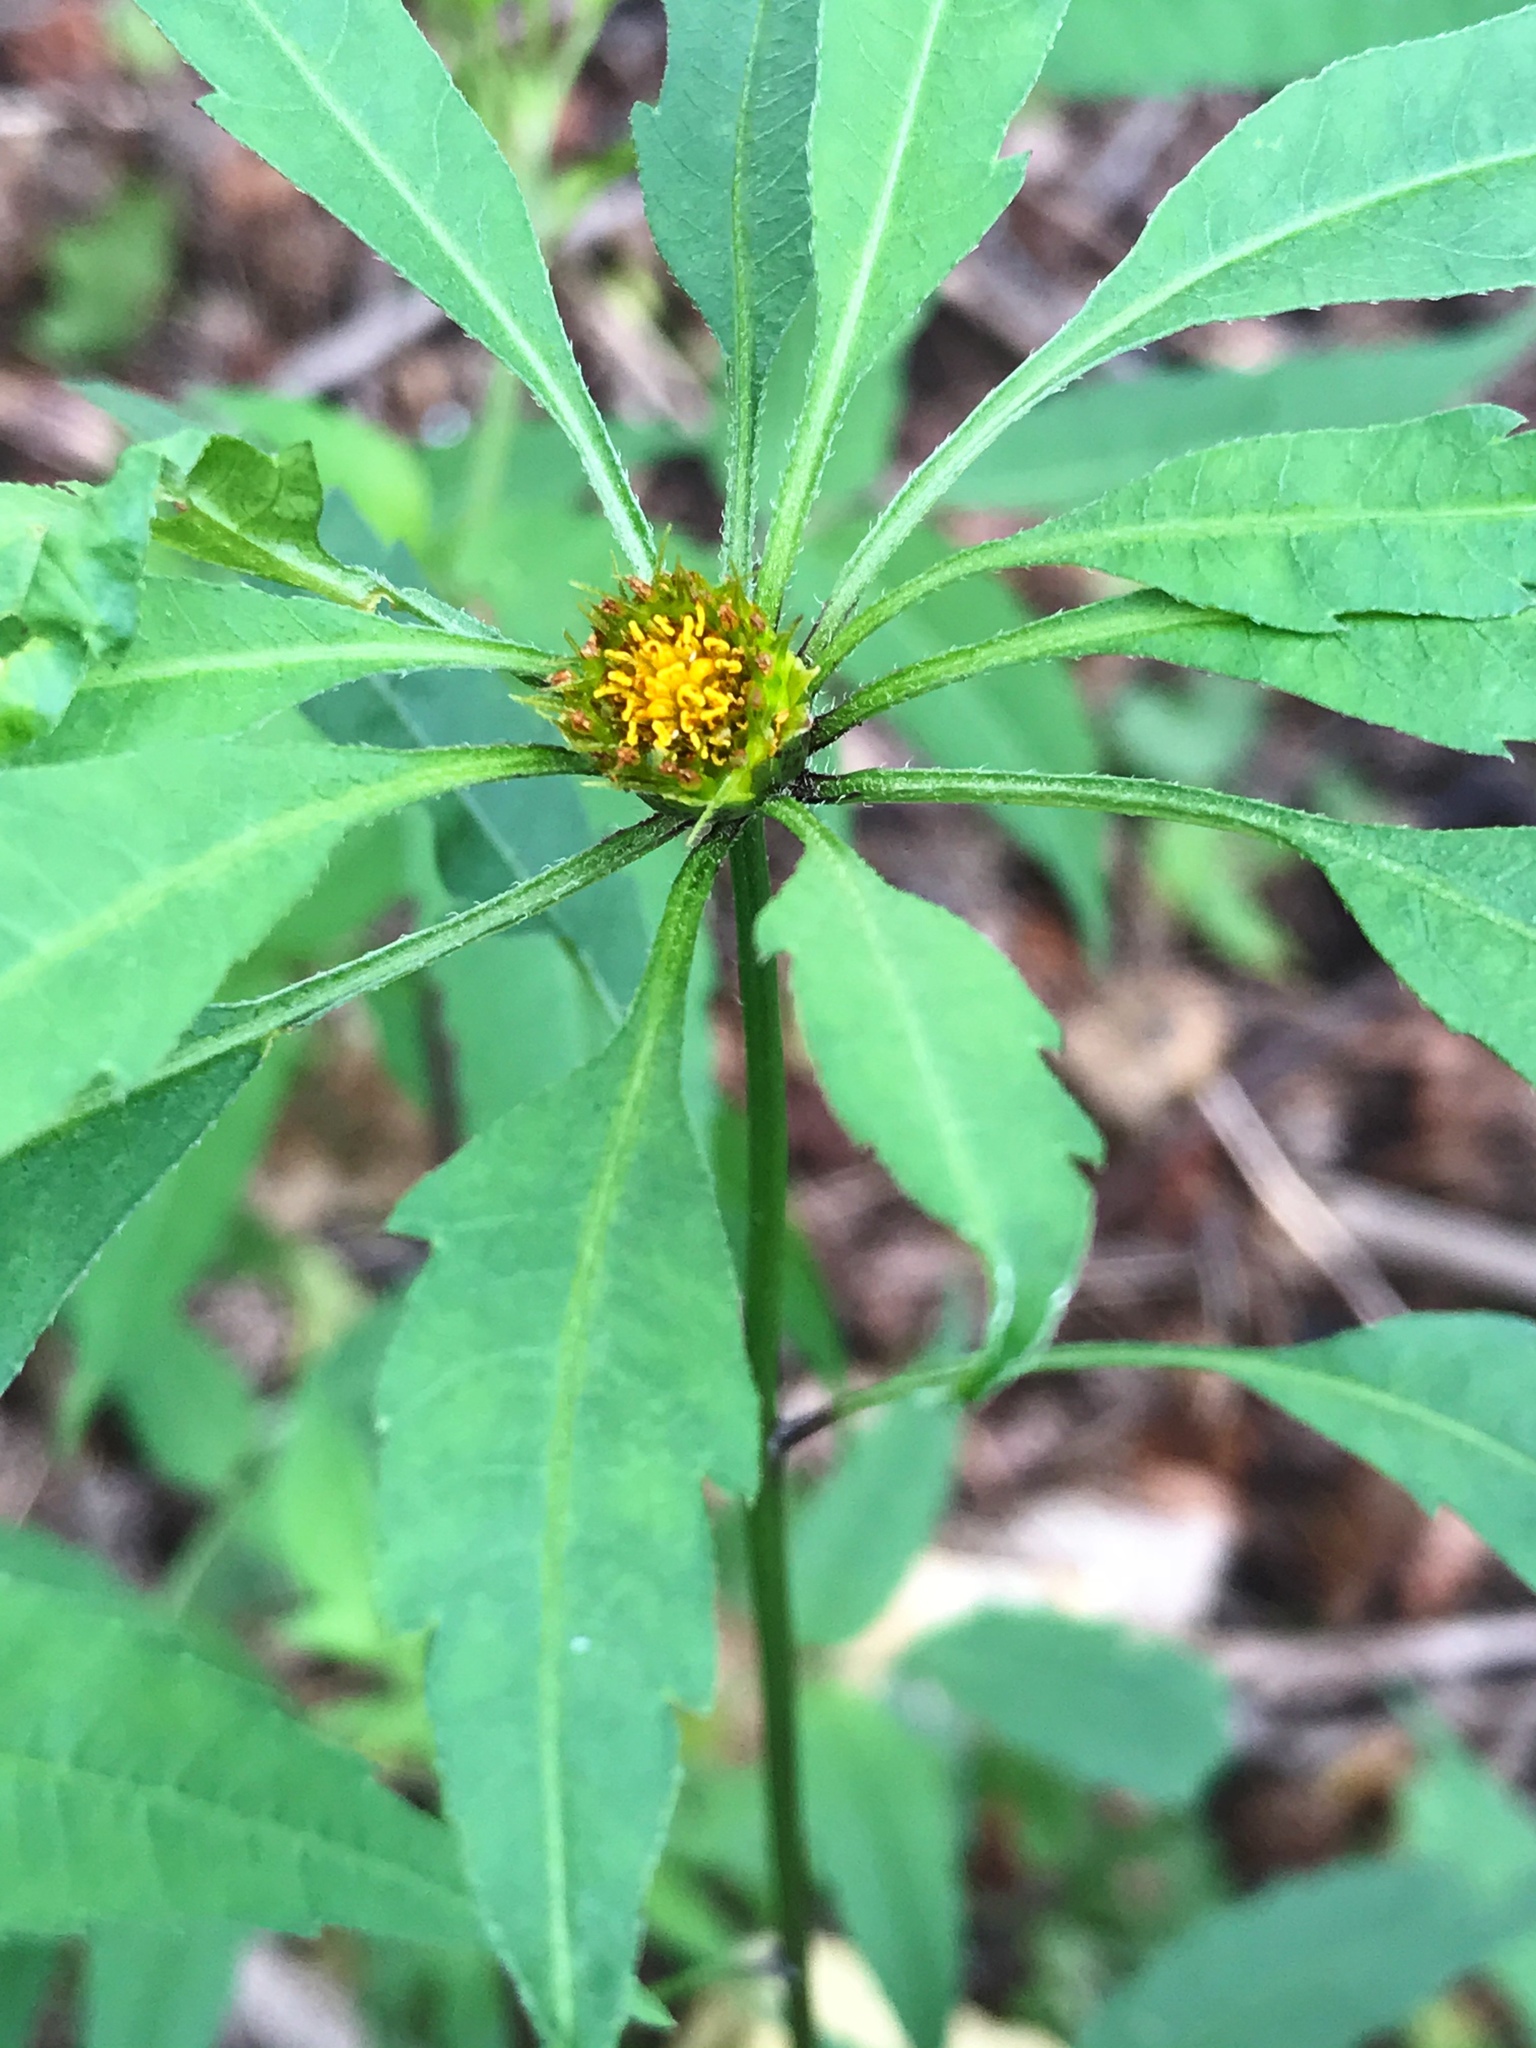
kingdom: Plantae
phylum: Tracheophyta
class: Magnoliopsida
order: Asterales
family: Asteraceae
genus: Bidens
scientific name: Bidens frondosa
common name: Beggarticks
